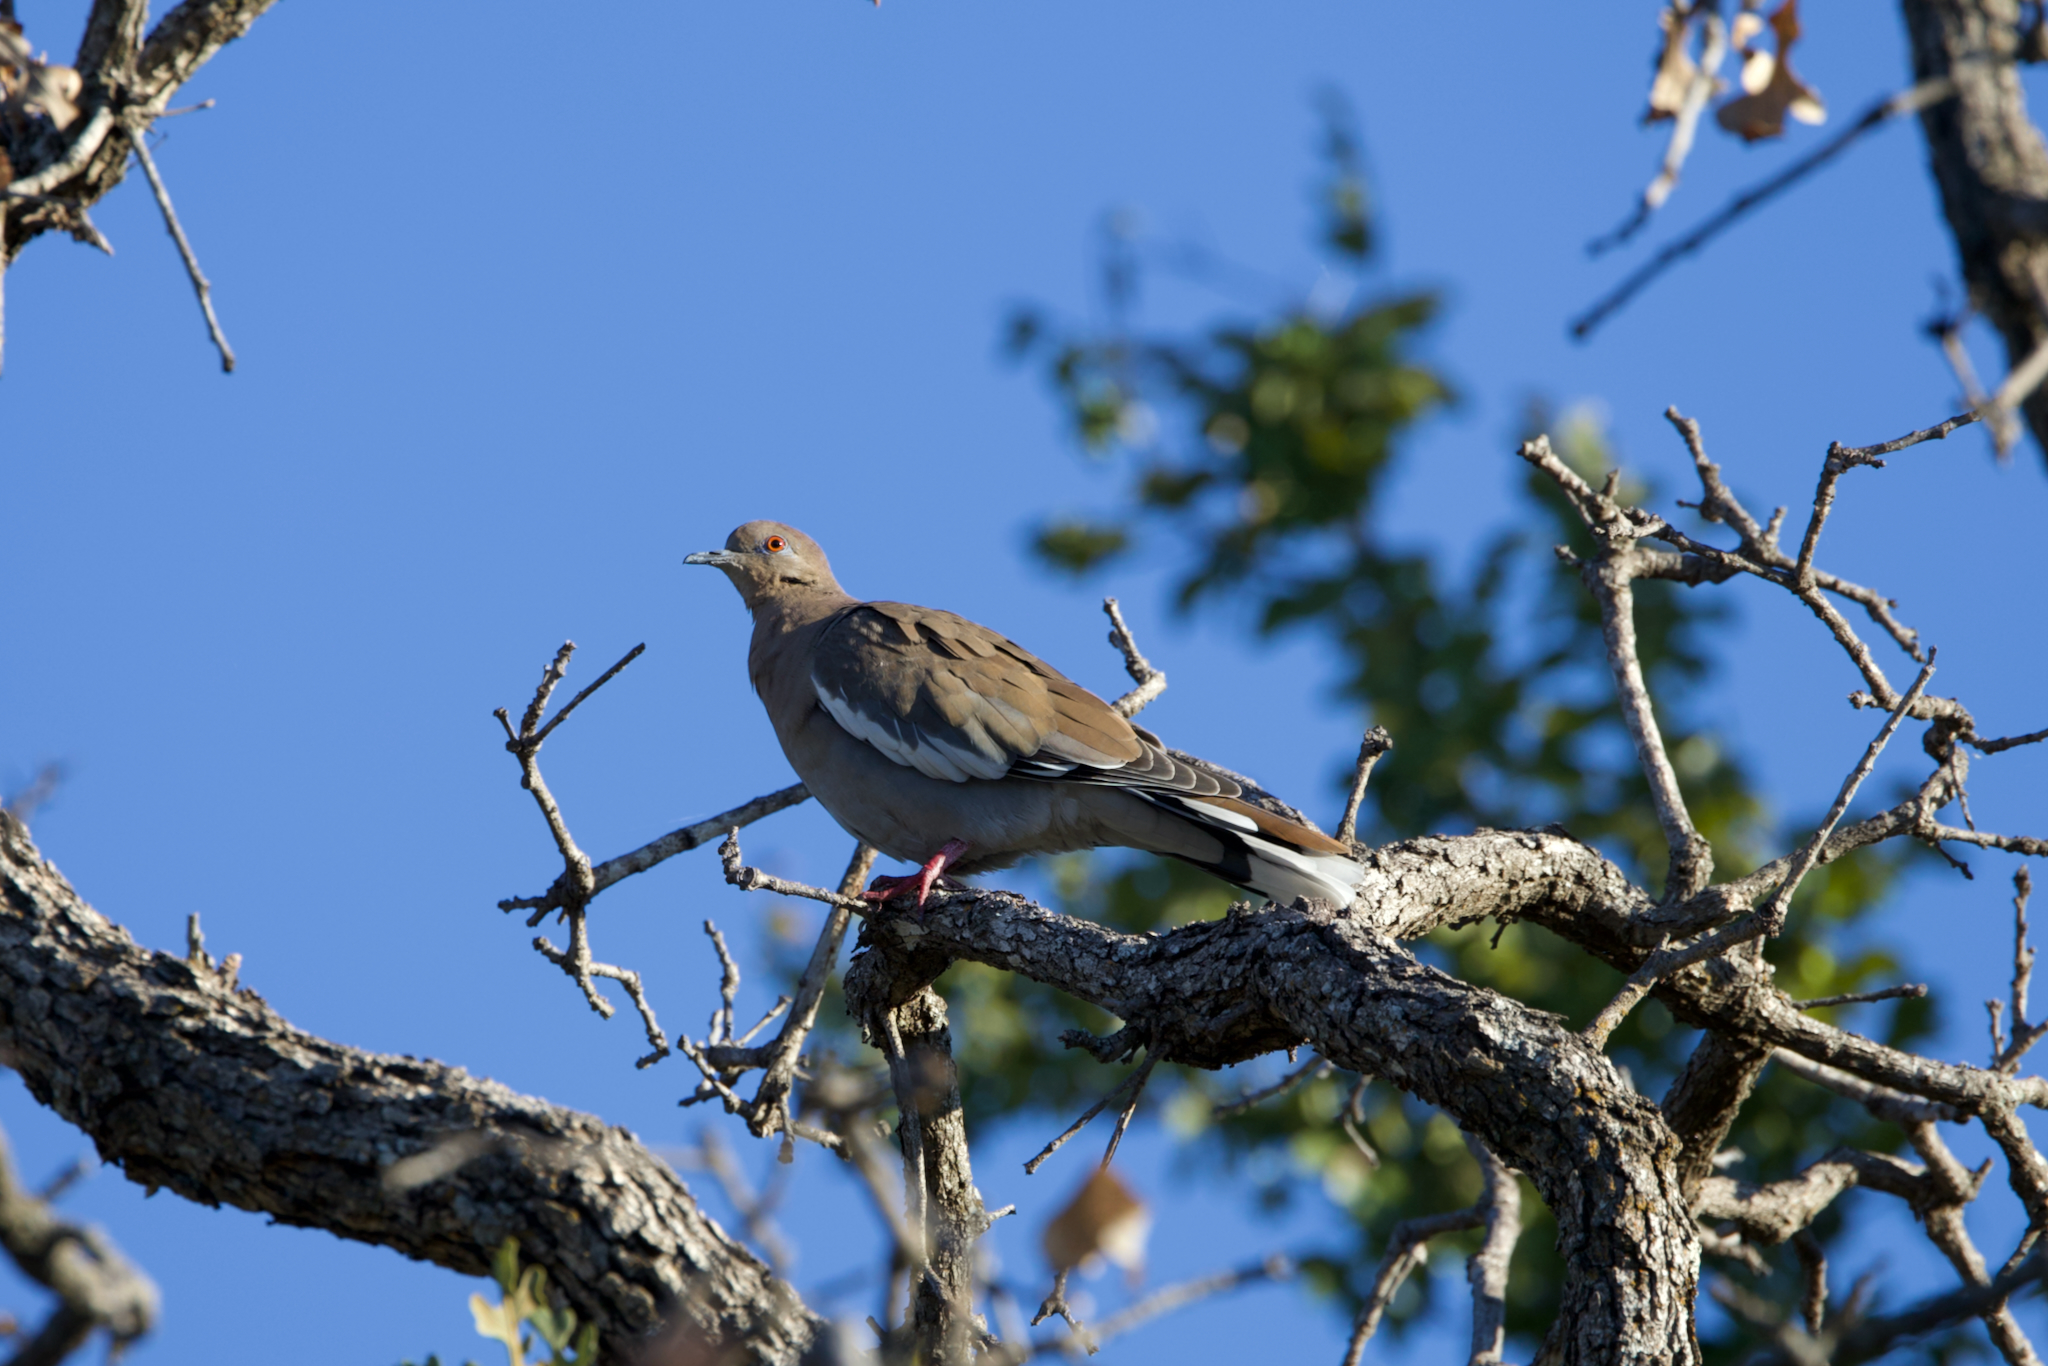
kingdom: Animalia
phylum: Chordata
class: Aves
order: Columbiformes
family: Columbidae
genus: Zenaida
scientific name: Zenaida asiatica
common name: White-winged dove
